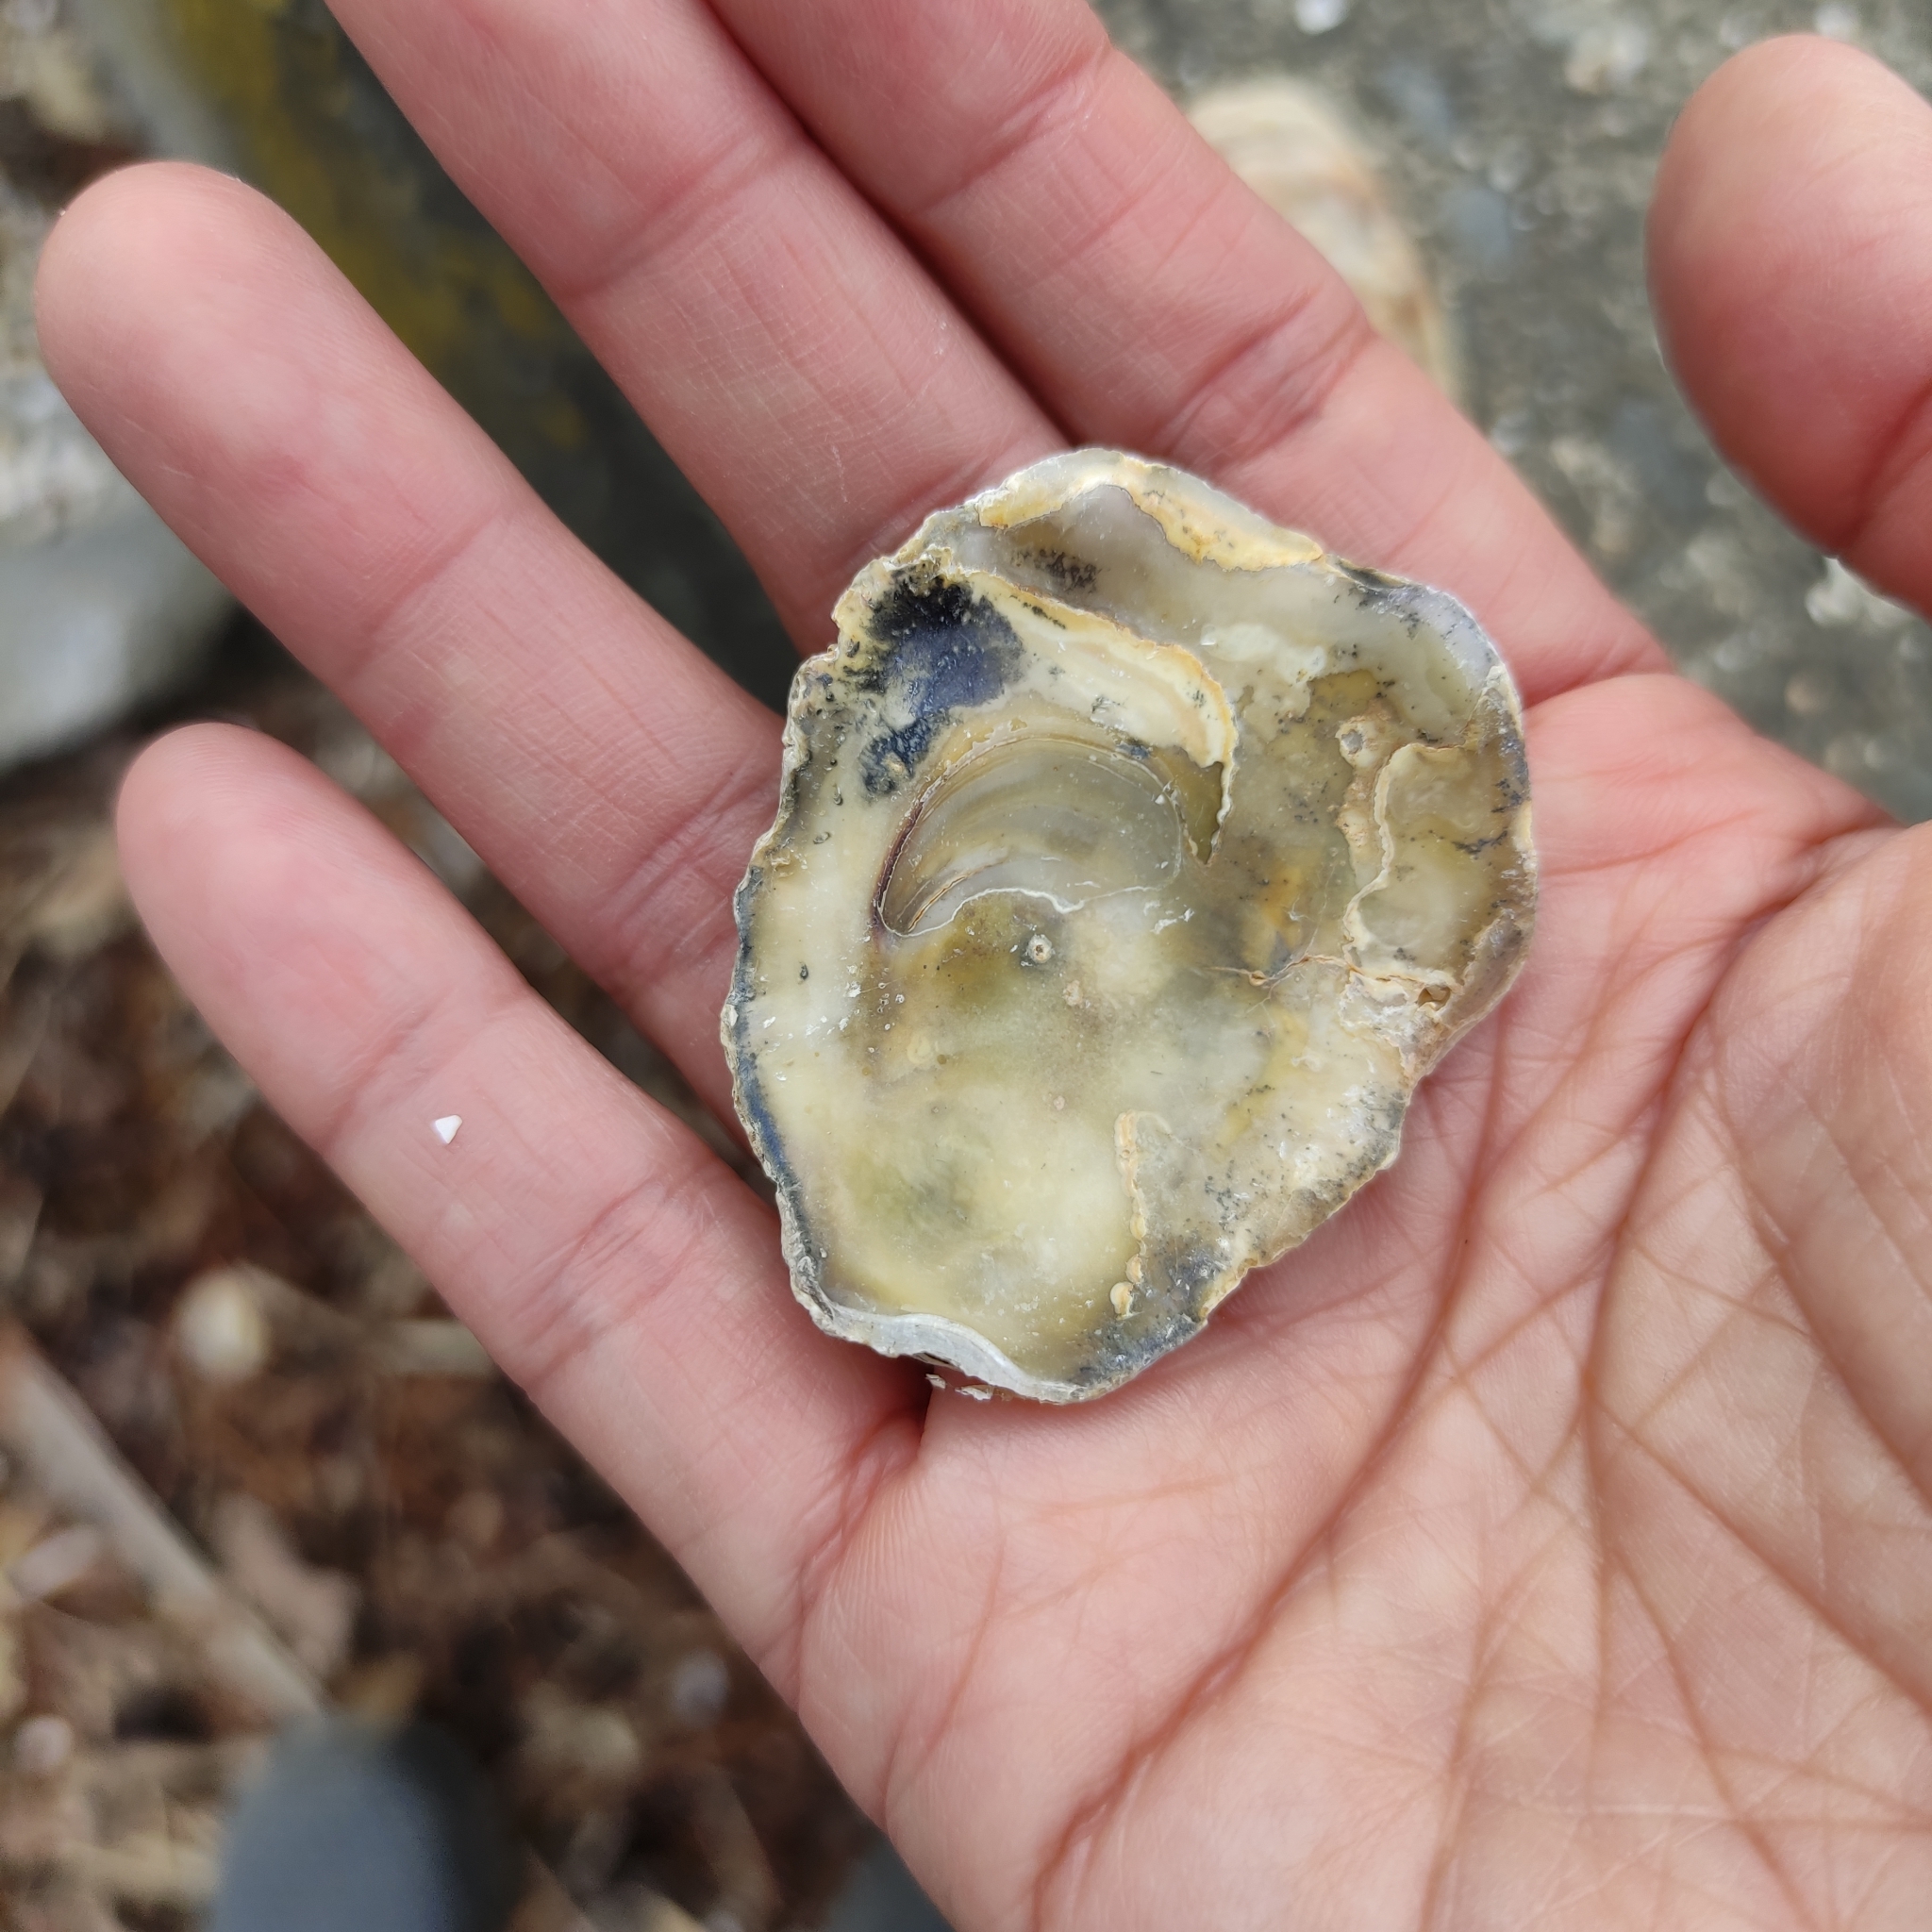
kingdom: Animalia
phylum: Mollusca
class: Bivalvia
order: Ostreida
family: Ostreidae
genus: Ostrea
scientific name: Ostrea chilensis
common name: Chilean oyster
